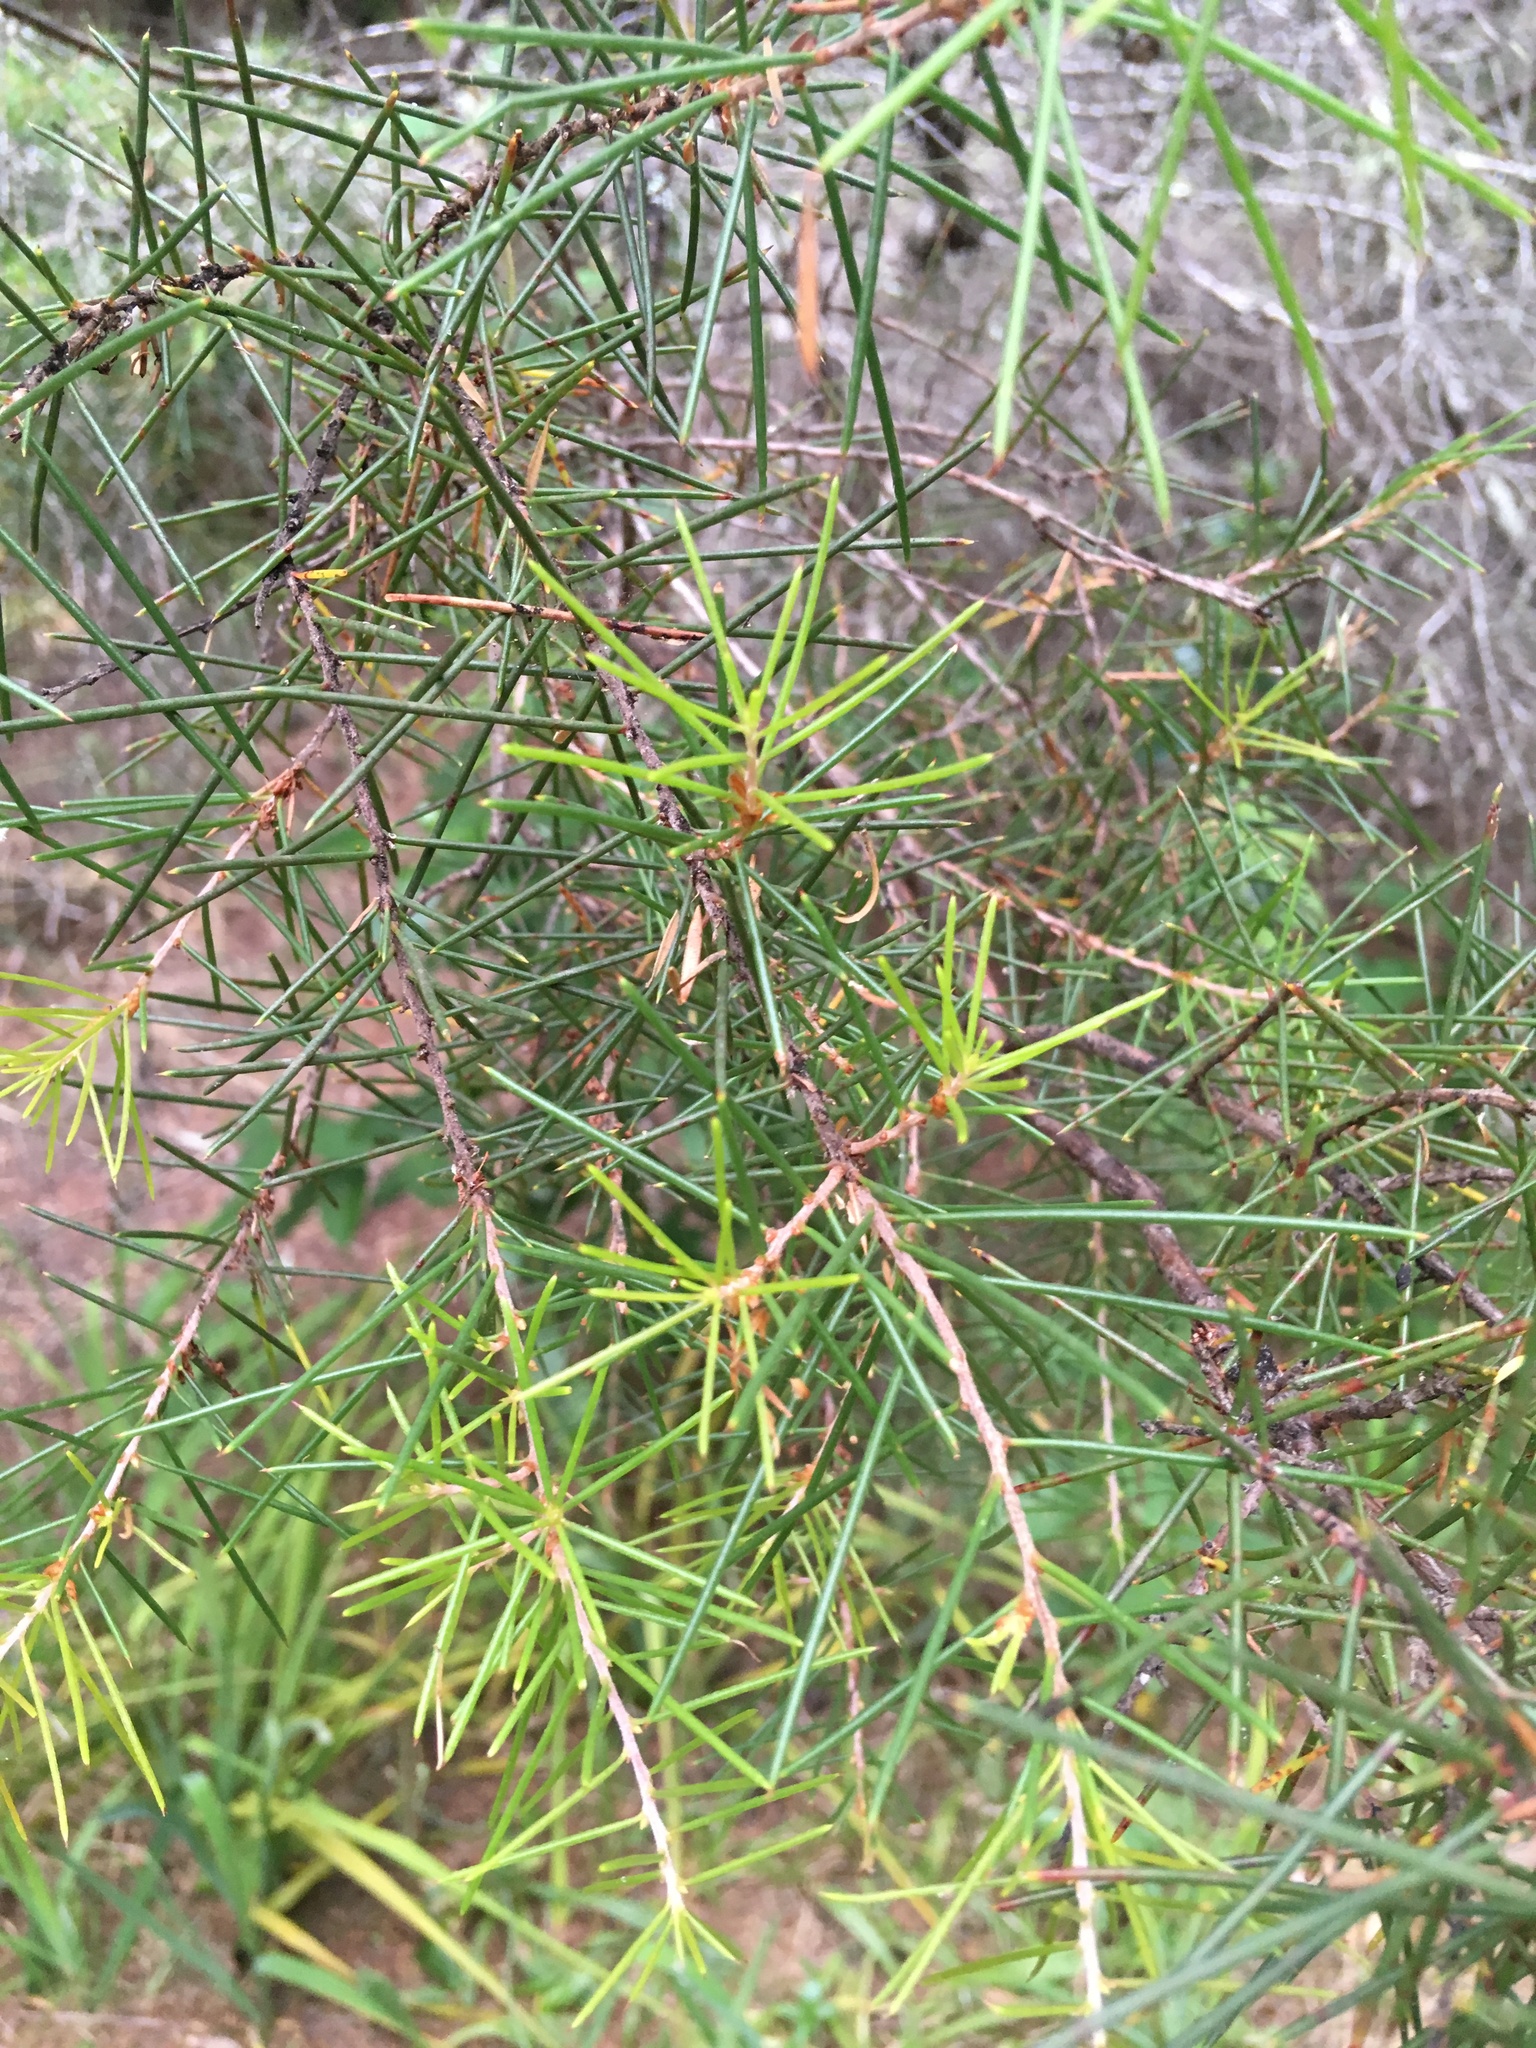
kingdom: Plantae
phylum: Tracheophyta
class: Magnoliopsida
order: Proteales
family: Proteaceae
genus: Hakea
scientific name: Hakea sericea
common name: Needle bush
